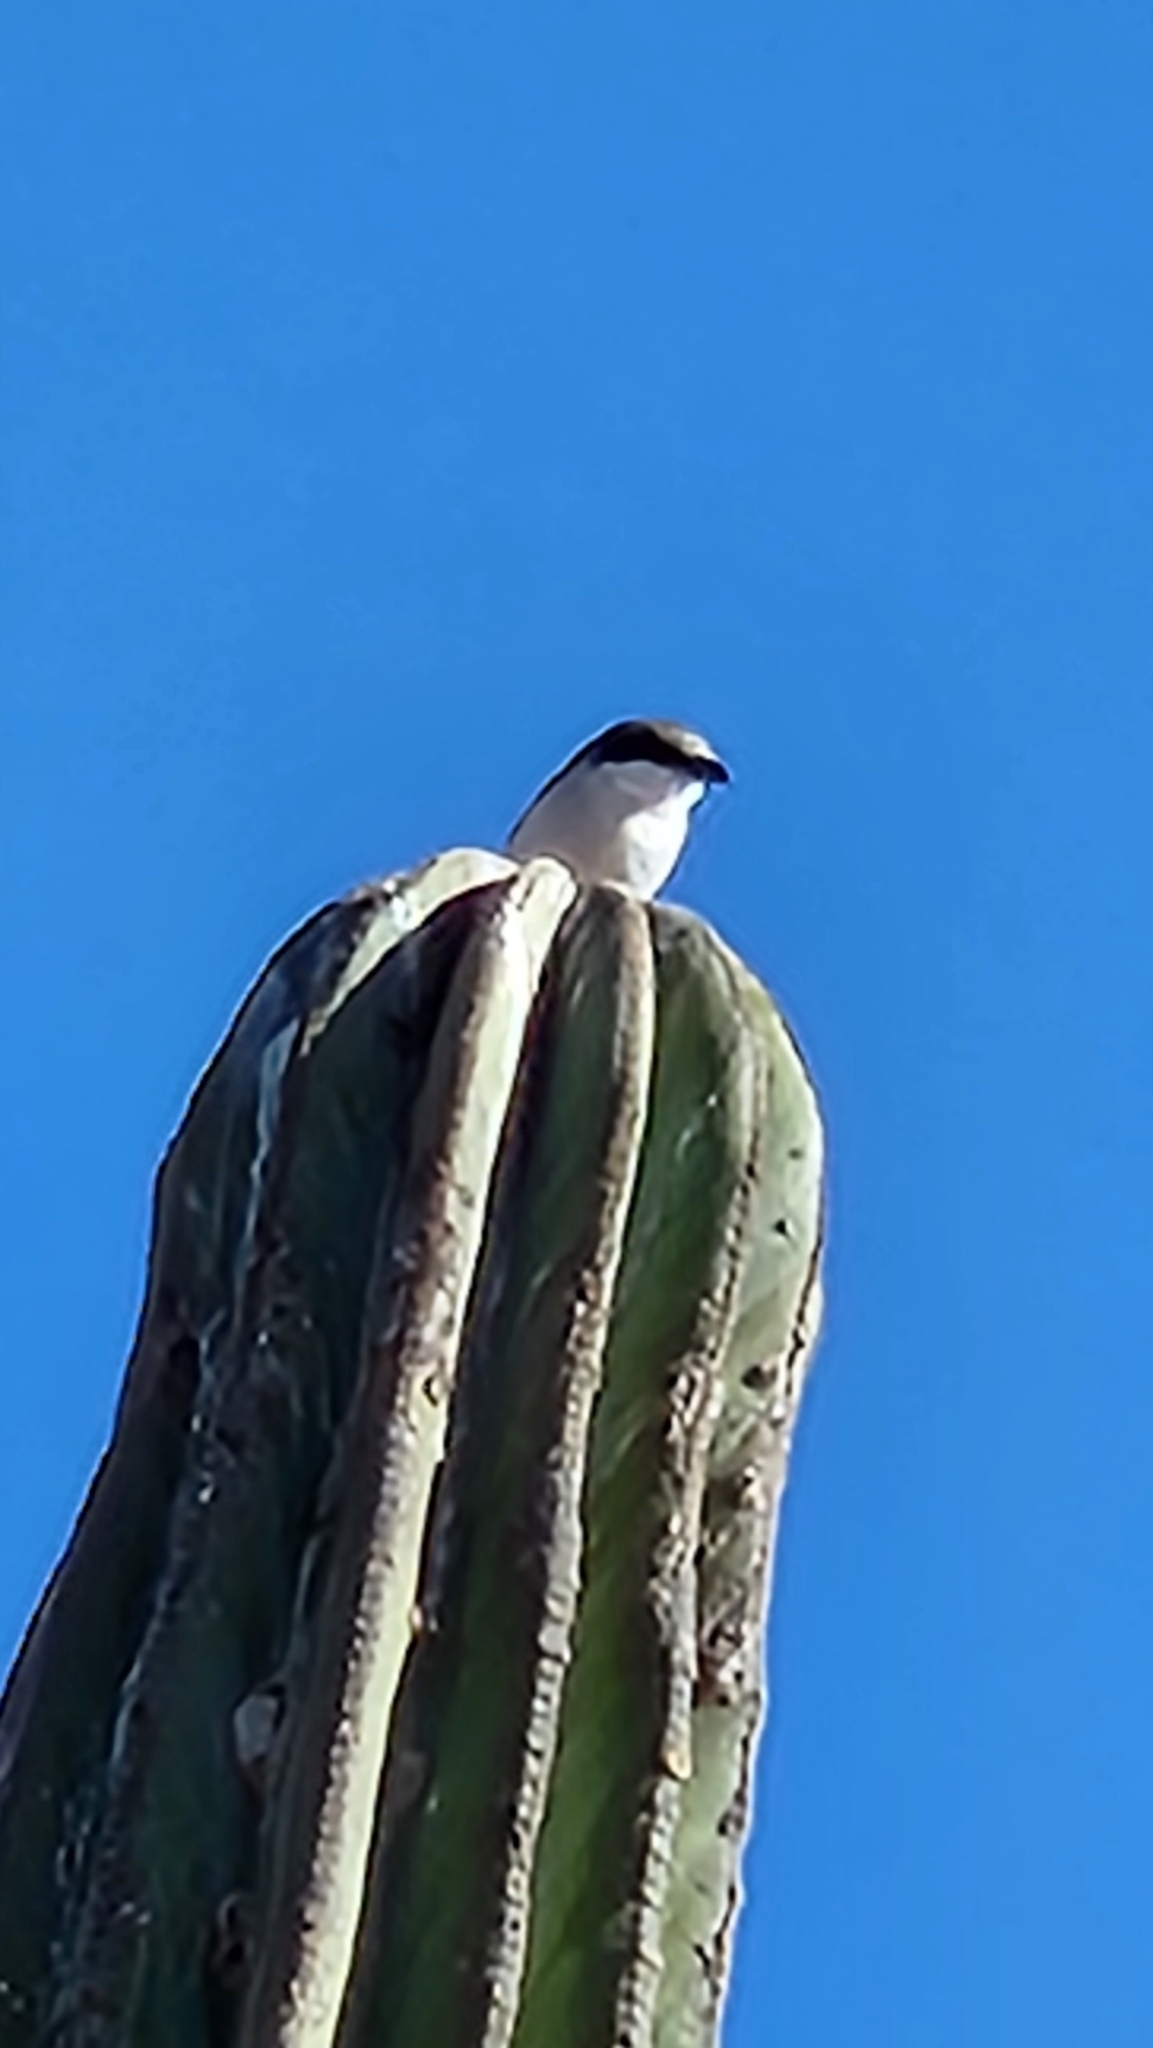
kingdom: Animalia
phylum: Chordata
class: Aves
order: Passeriformes
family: Laniidae
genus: Lanius
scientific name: Lanius ludovicianus
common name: Loggerhead shrike
